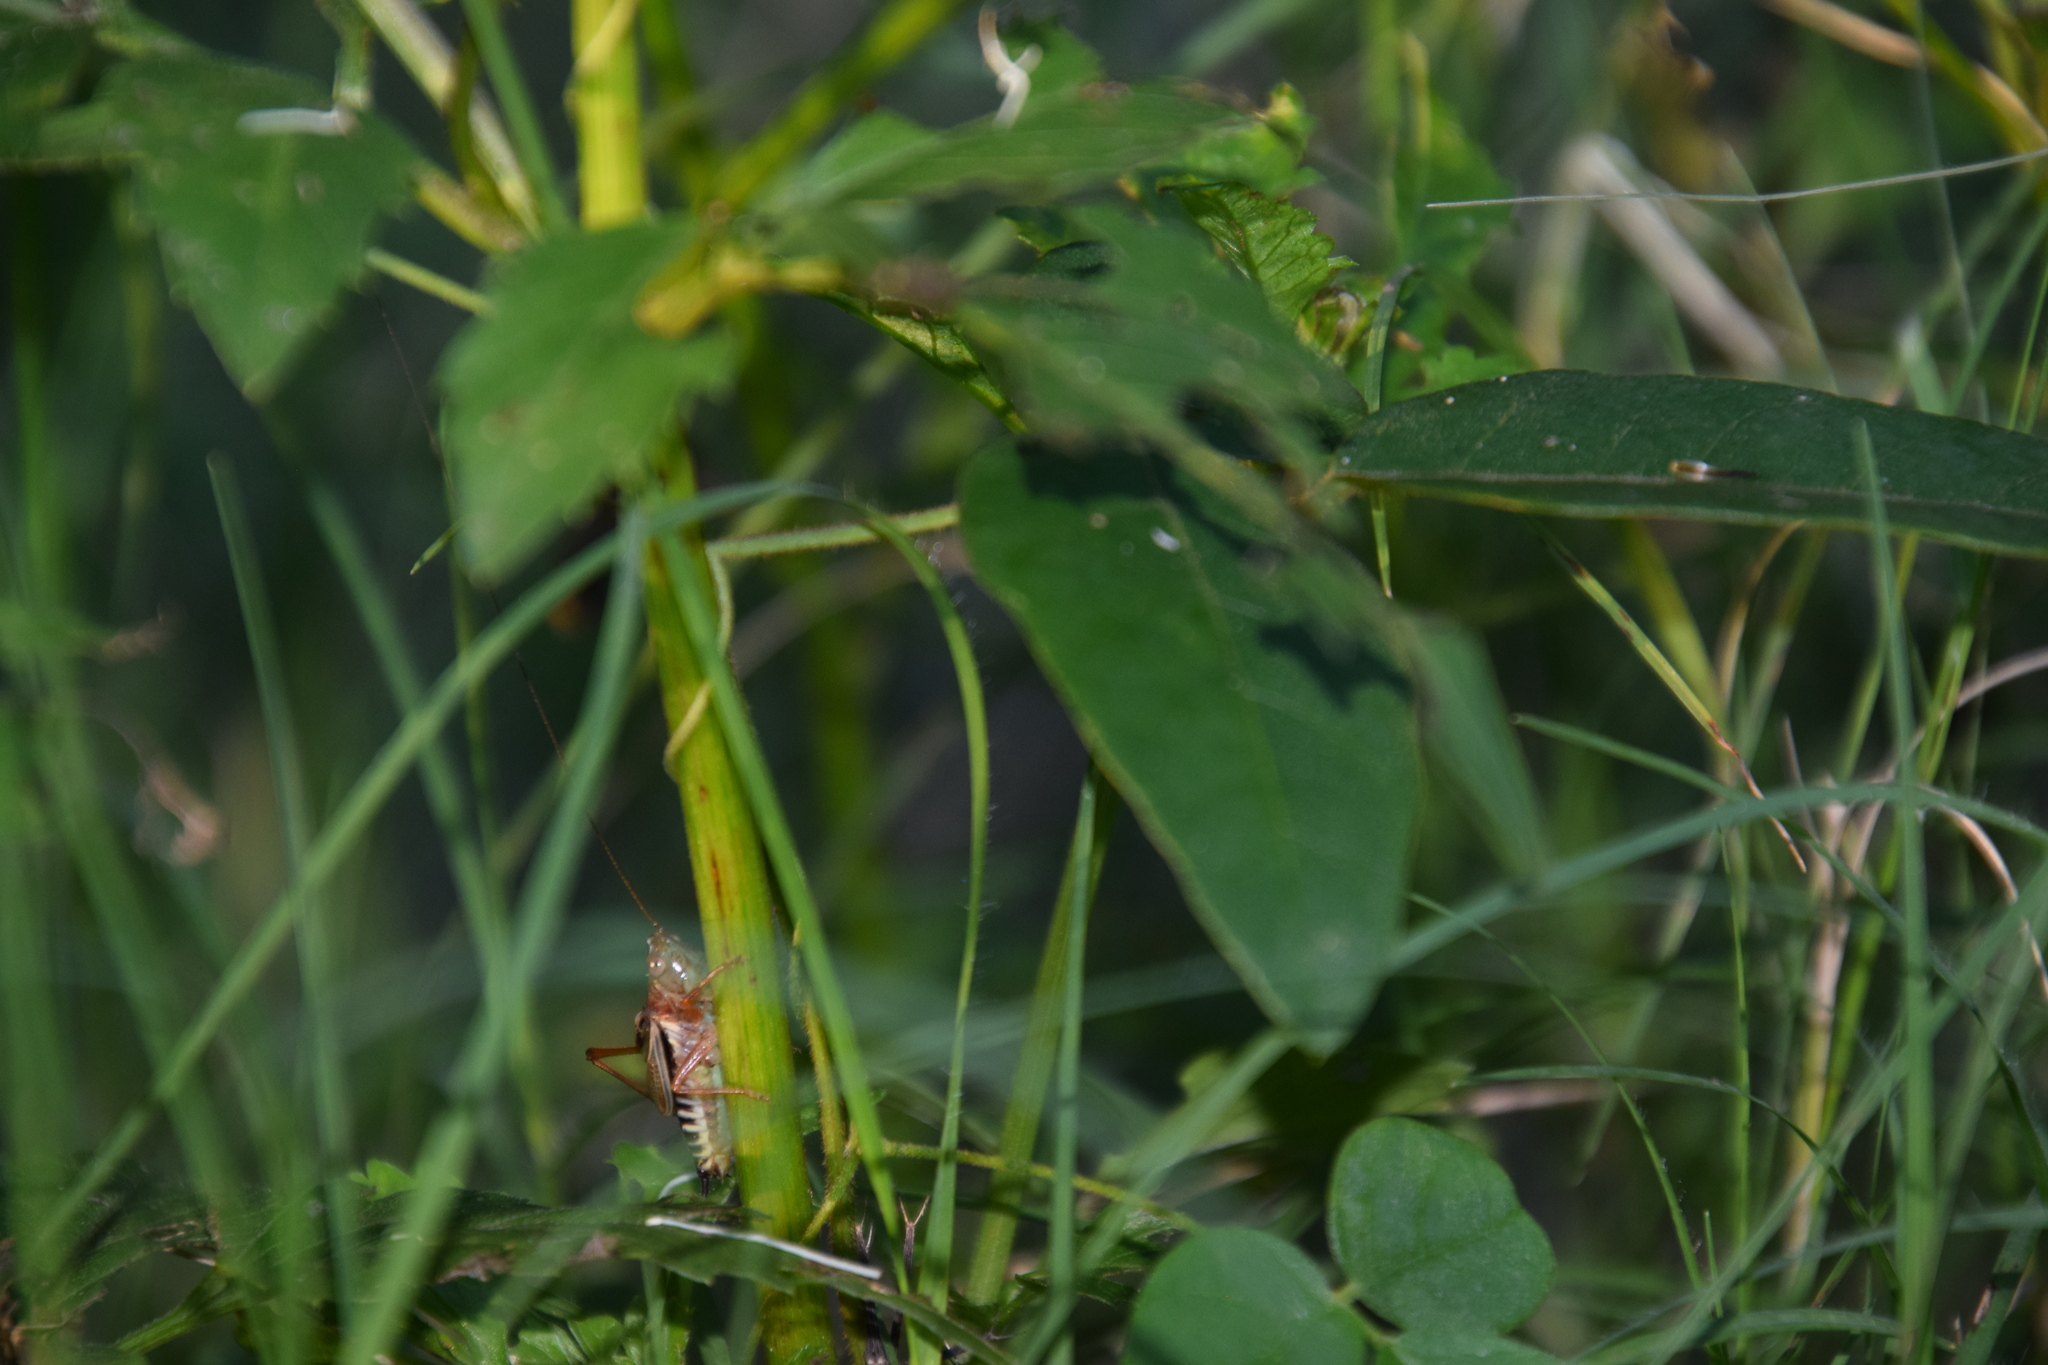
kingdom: Animalia
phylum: Arthropoda
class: Insecta
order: Orthoptera
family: Tettigoniidae
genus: Conocephalus
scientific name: Conocephalus semivittatus
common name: Blackish meadow katydid
